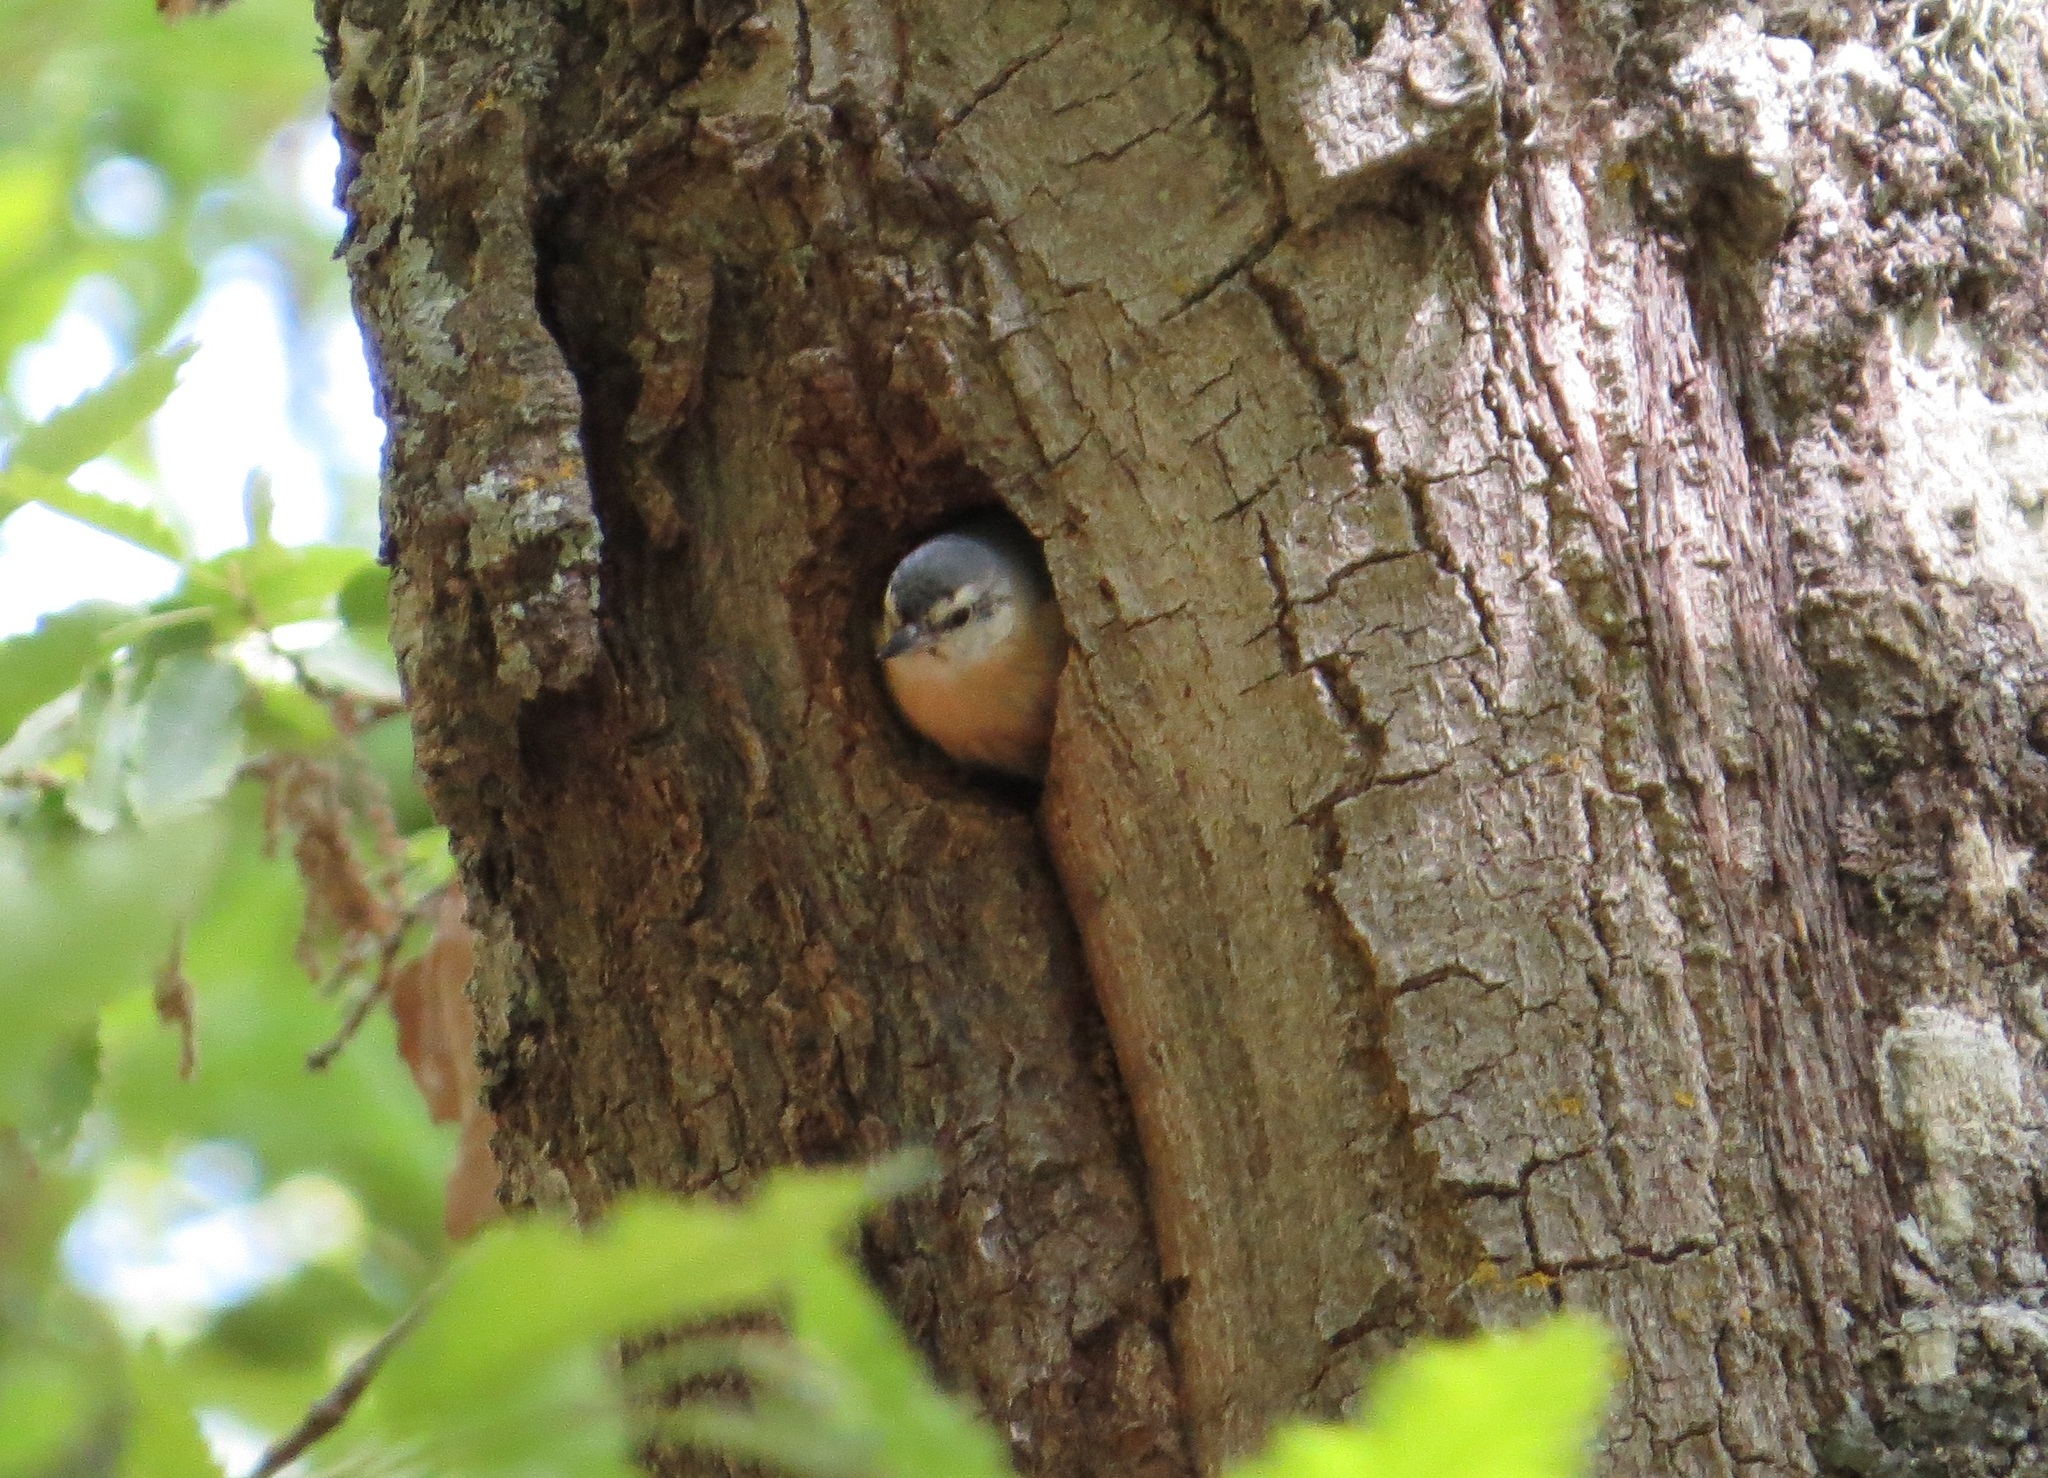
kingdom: Animalia
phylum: Chordata
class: Aves
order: Passeriformes
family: Sittidae
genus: Sitta
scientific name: Sitta ledanti
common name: Algerian nuthatch
